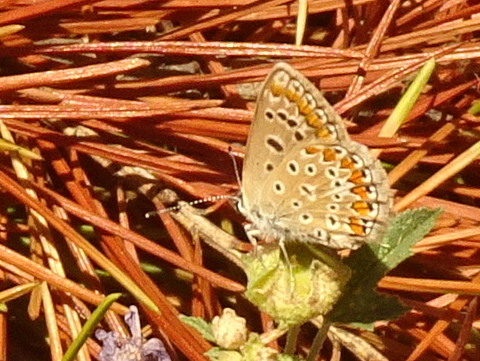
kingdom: Animalia
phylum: Arthropoda
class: Insecta
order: Lepidoptera
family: Lycaenidae
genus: Polyommatus
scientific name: Polyommatus icarus
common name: Common blue
